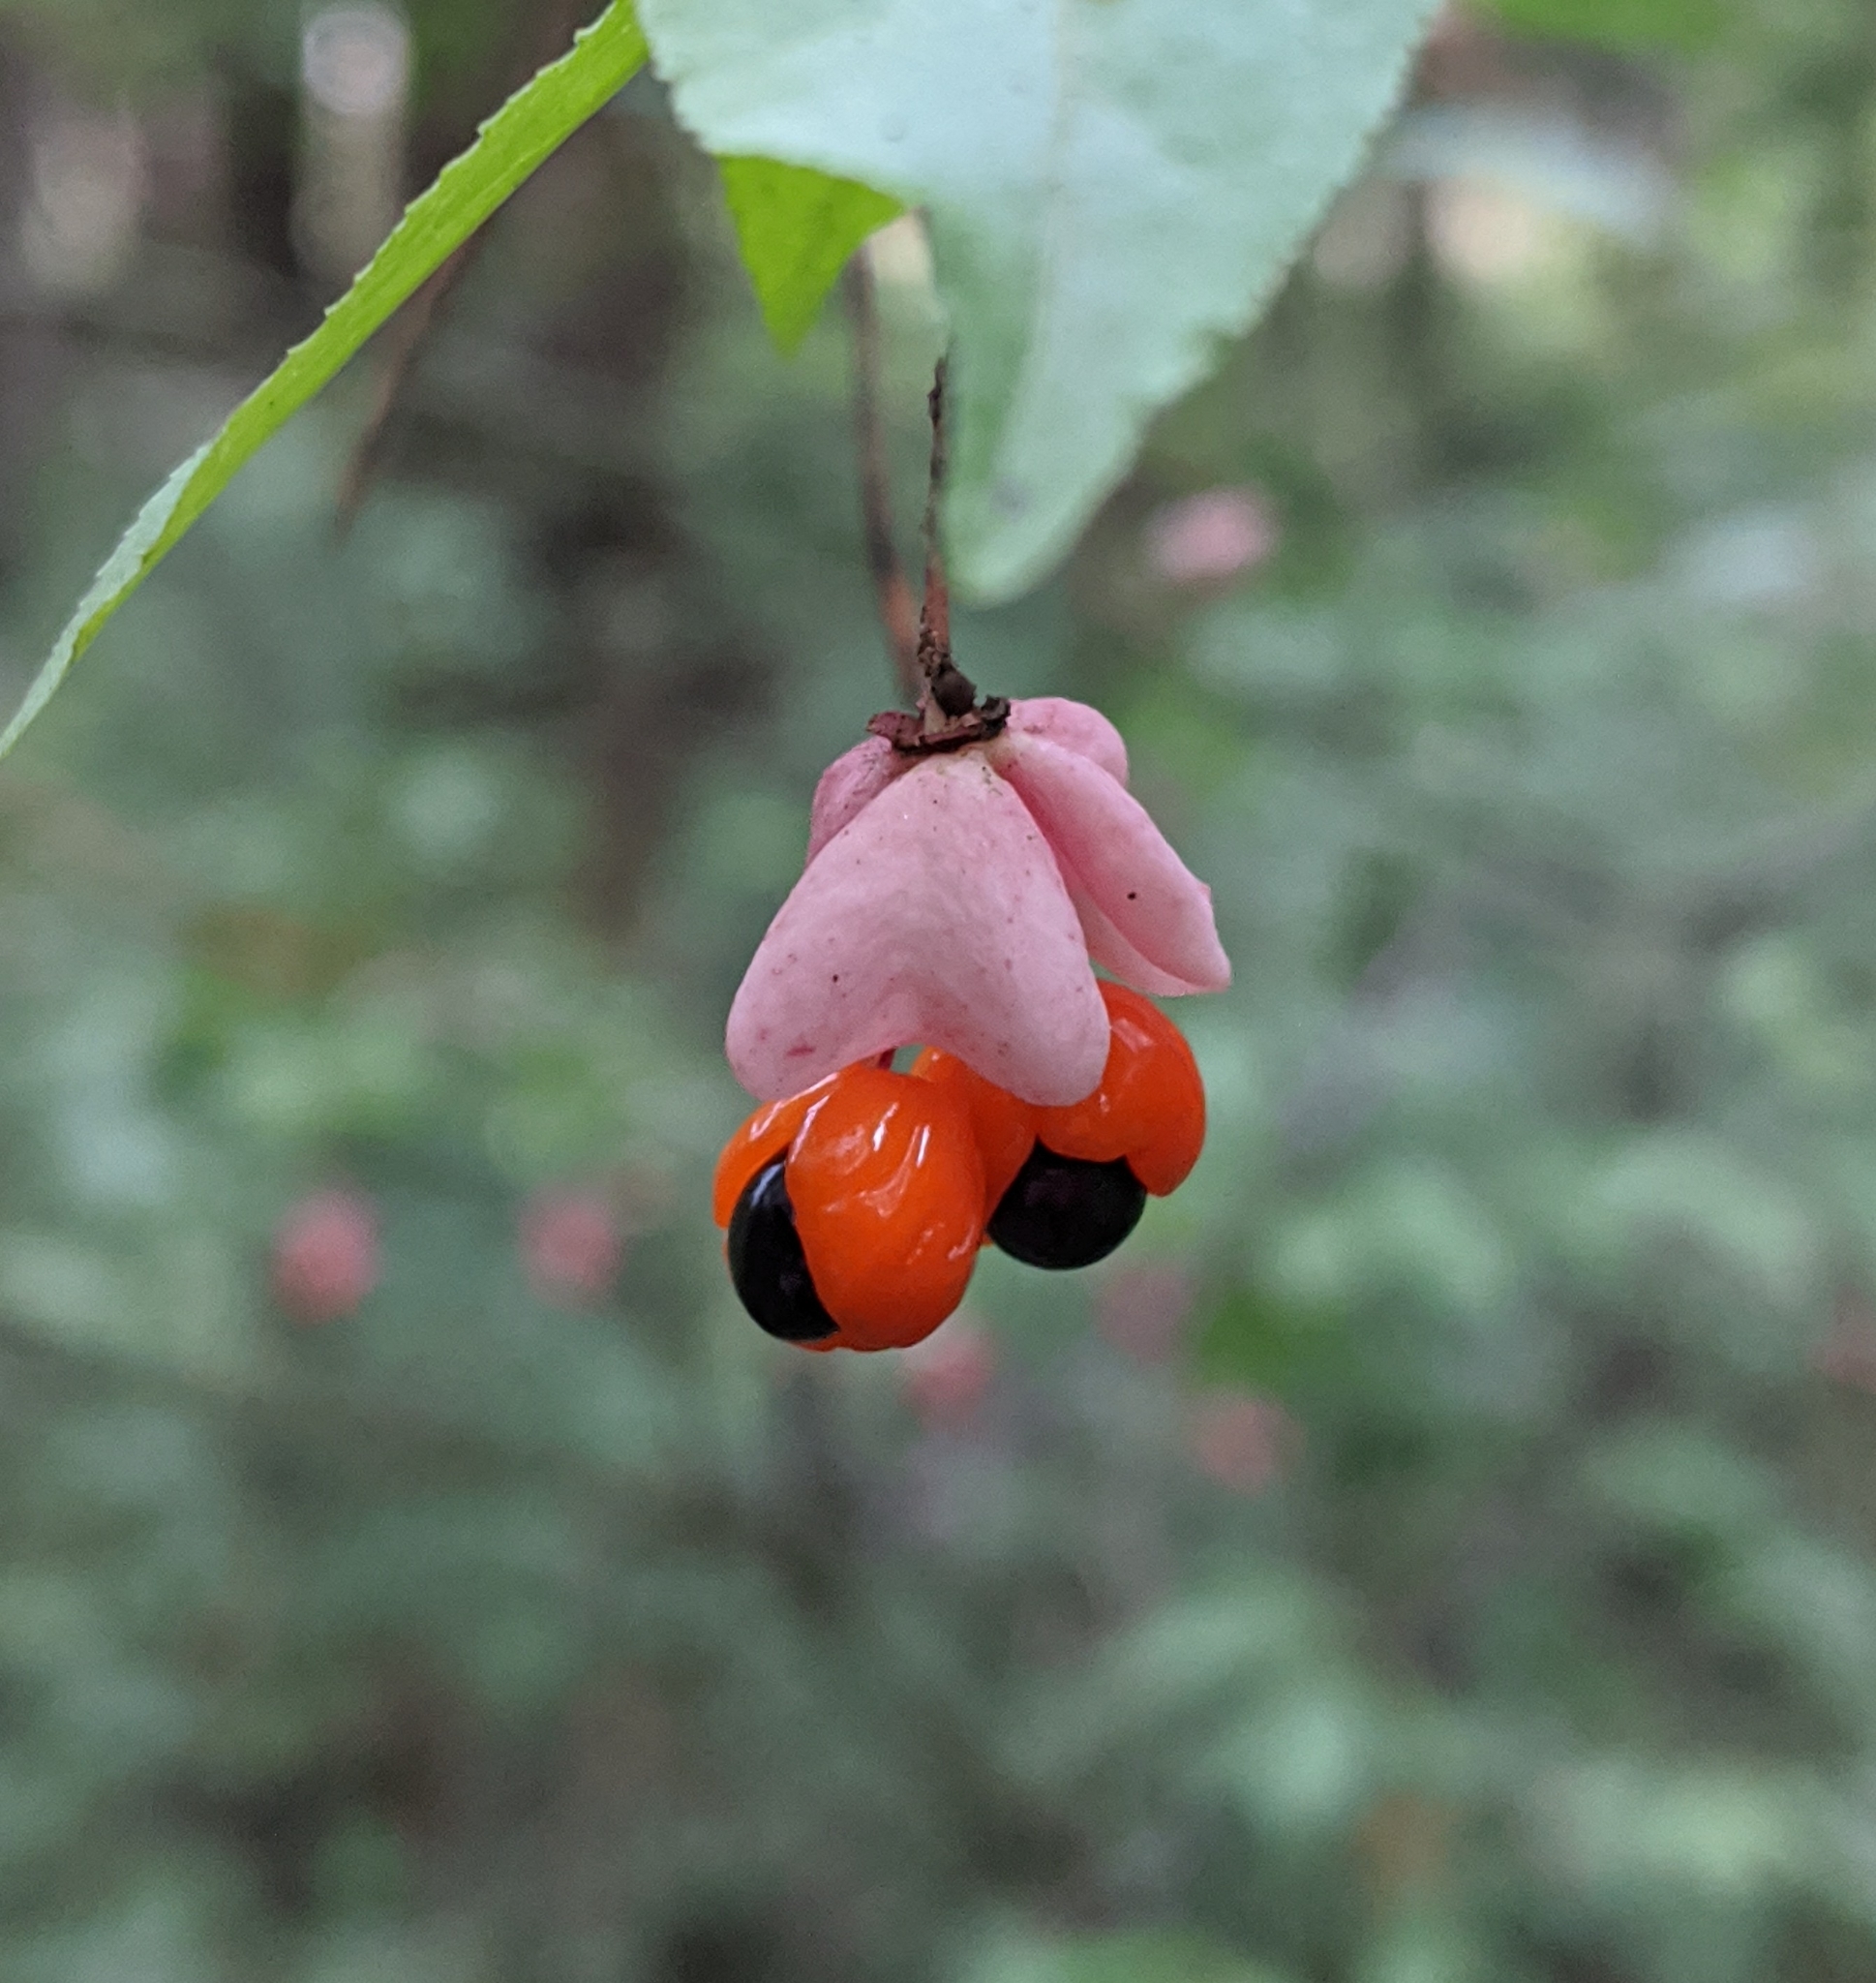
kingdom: Plantae
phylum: Tracheophyta
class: Magnoliopsida
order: Celastrales
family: Celastraceae
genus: Euonymus
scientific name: Euonymus verrucosus
